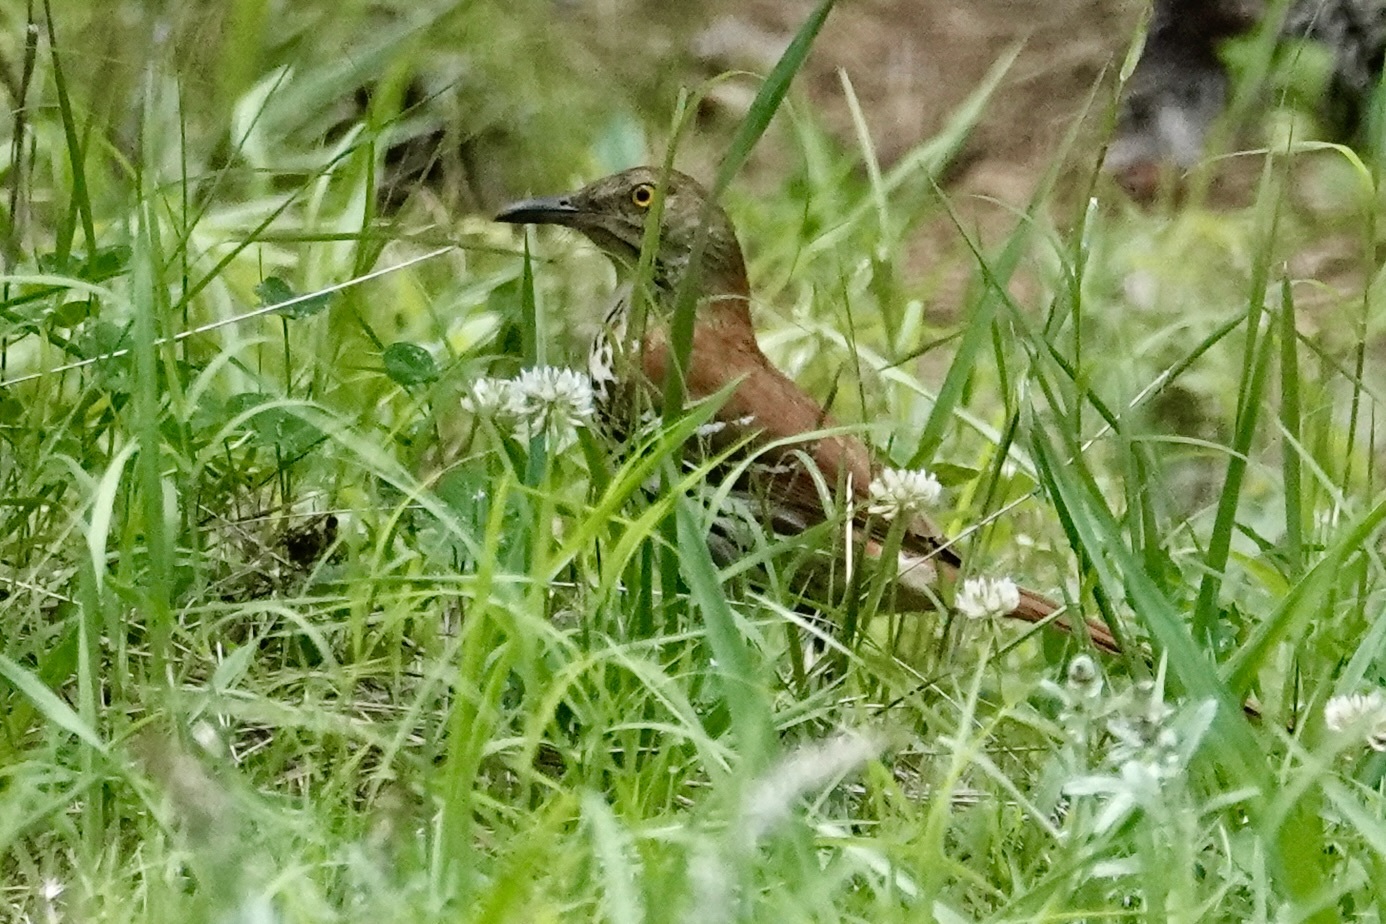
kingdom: Animalia
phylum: Chordata
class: Aves
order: Passeriformes
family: Mimidae
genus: Toxostoma
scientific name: Toxostoma rufum
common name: Brown thrasher
